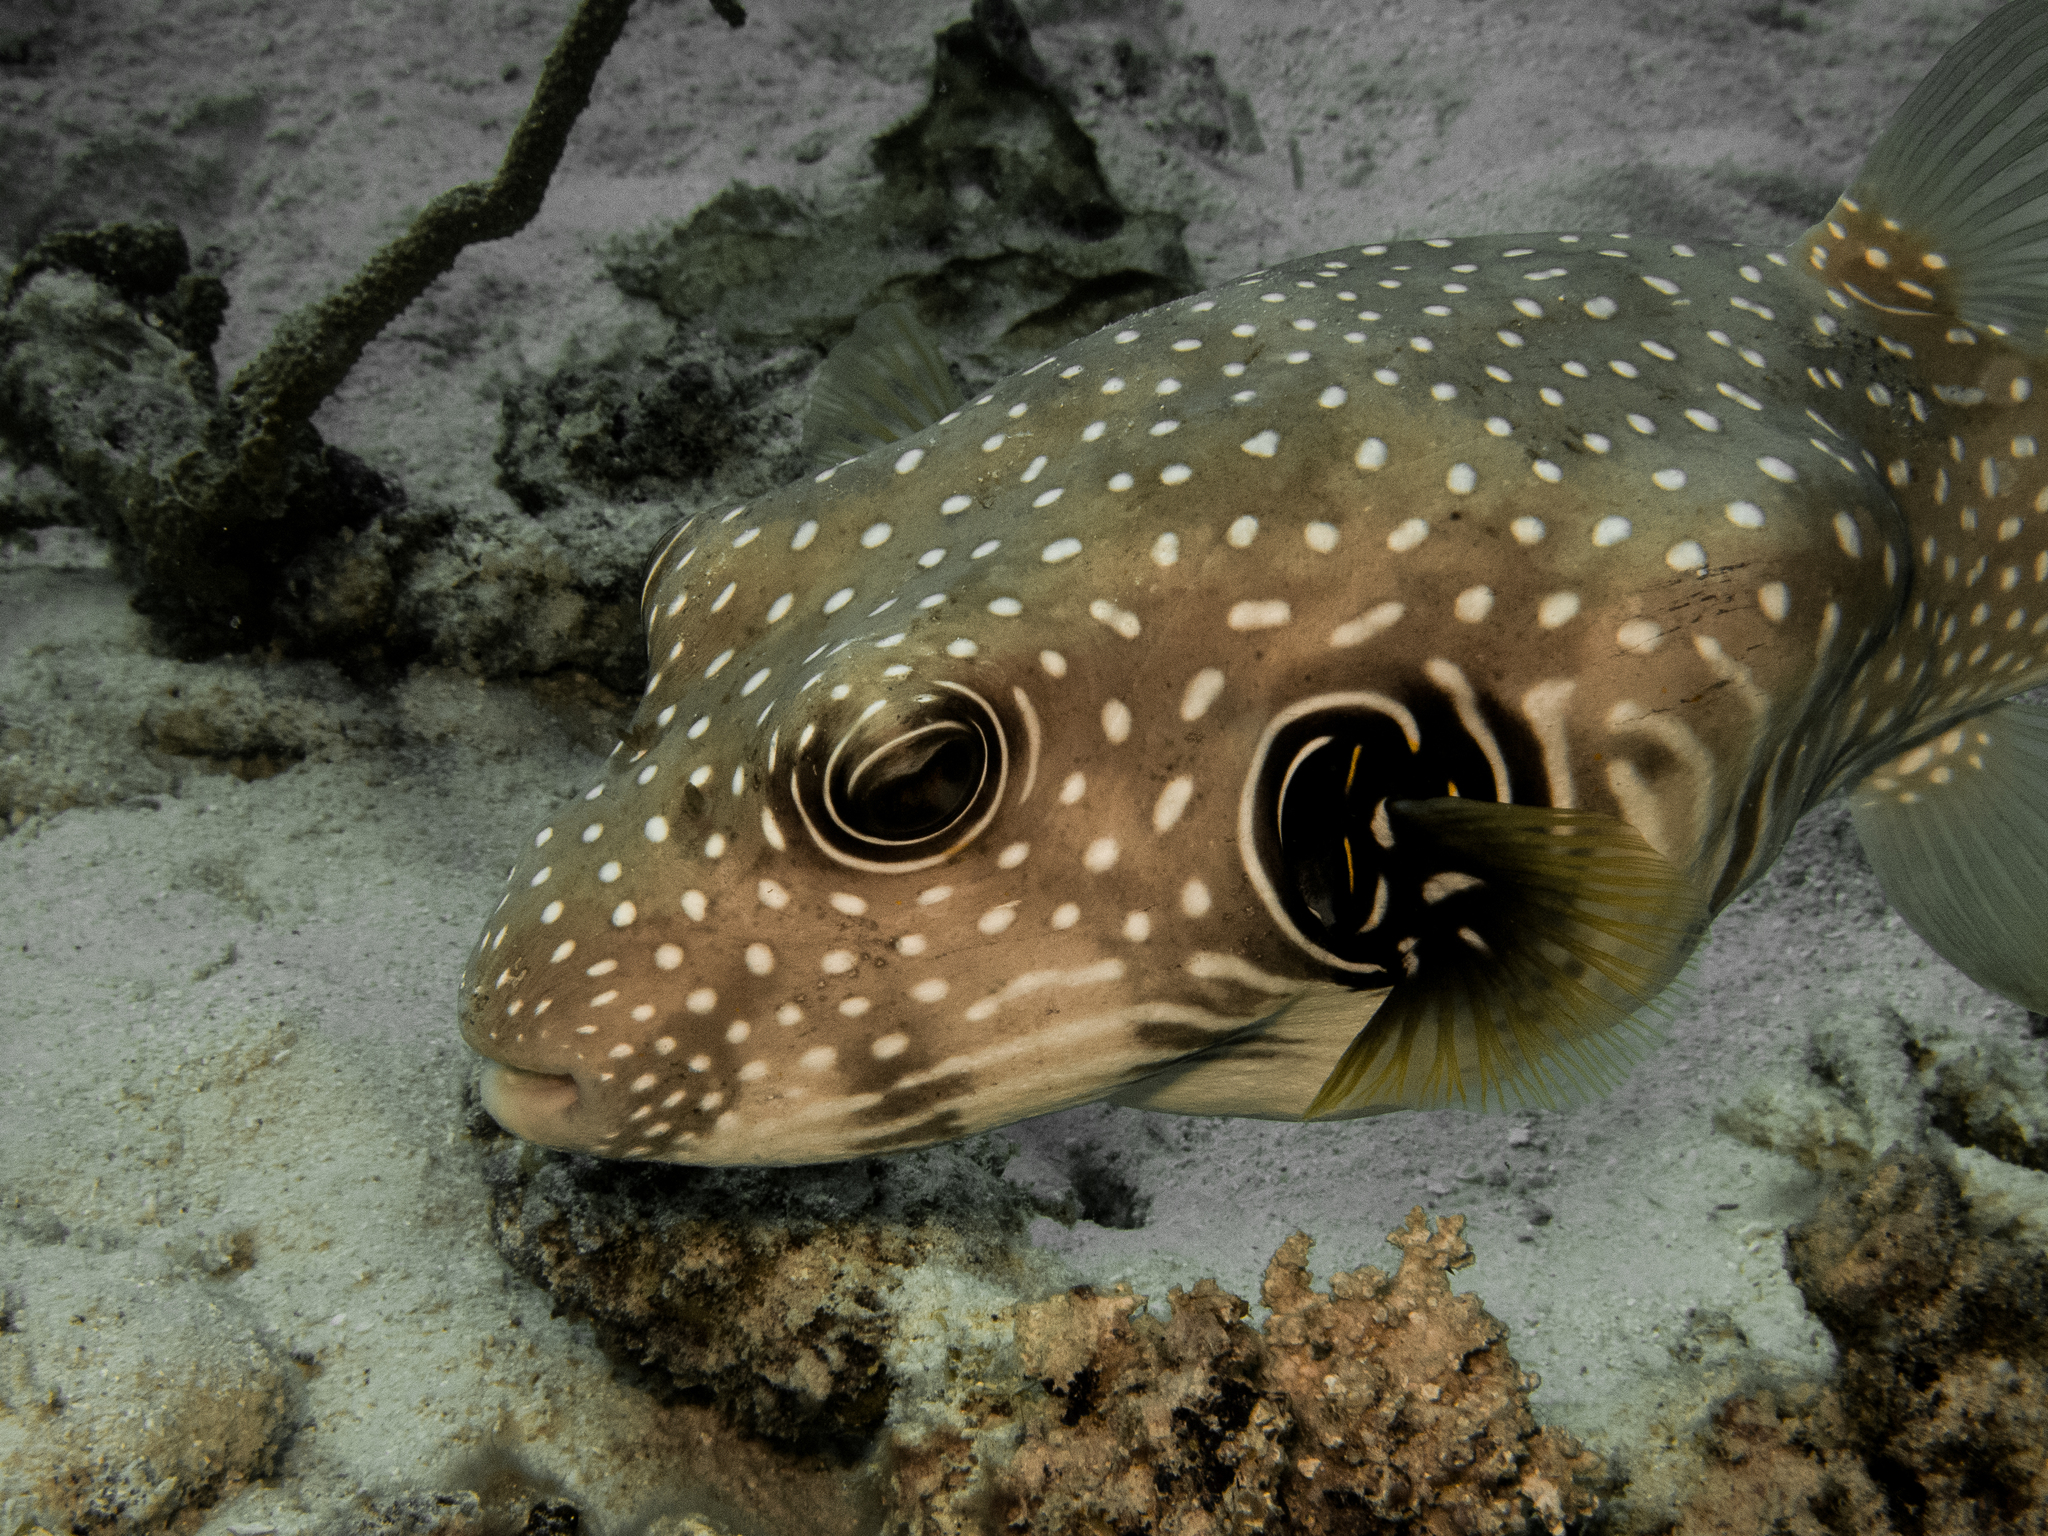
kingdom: Animalia
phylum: Chordata
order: Tetraodontiformes
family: Tetraodontidae
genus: Arothron
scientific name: Arothron hispidus
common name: Stripebelly puffer
